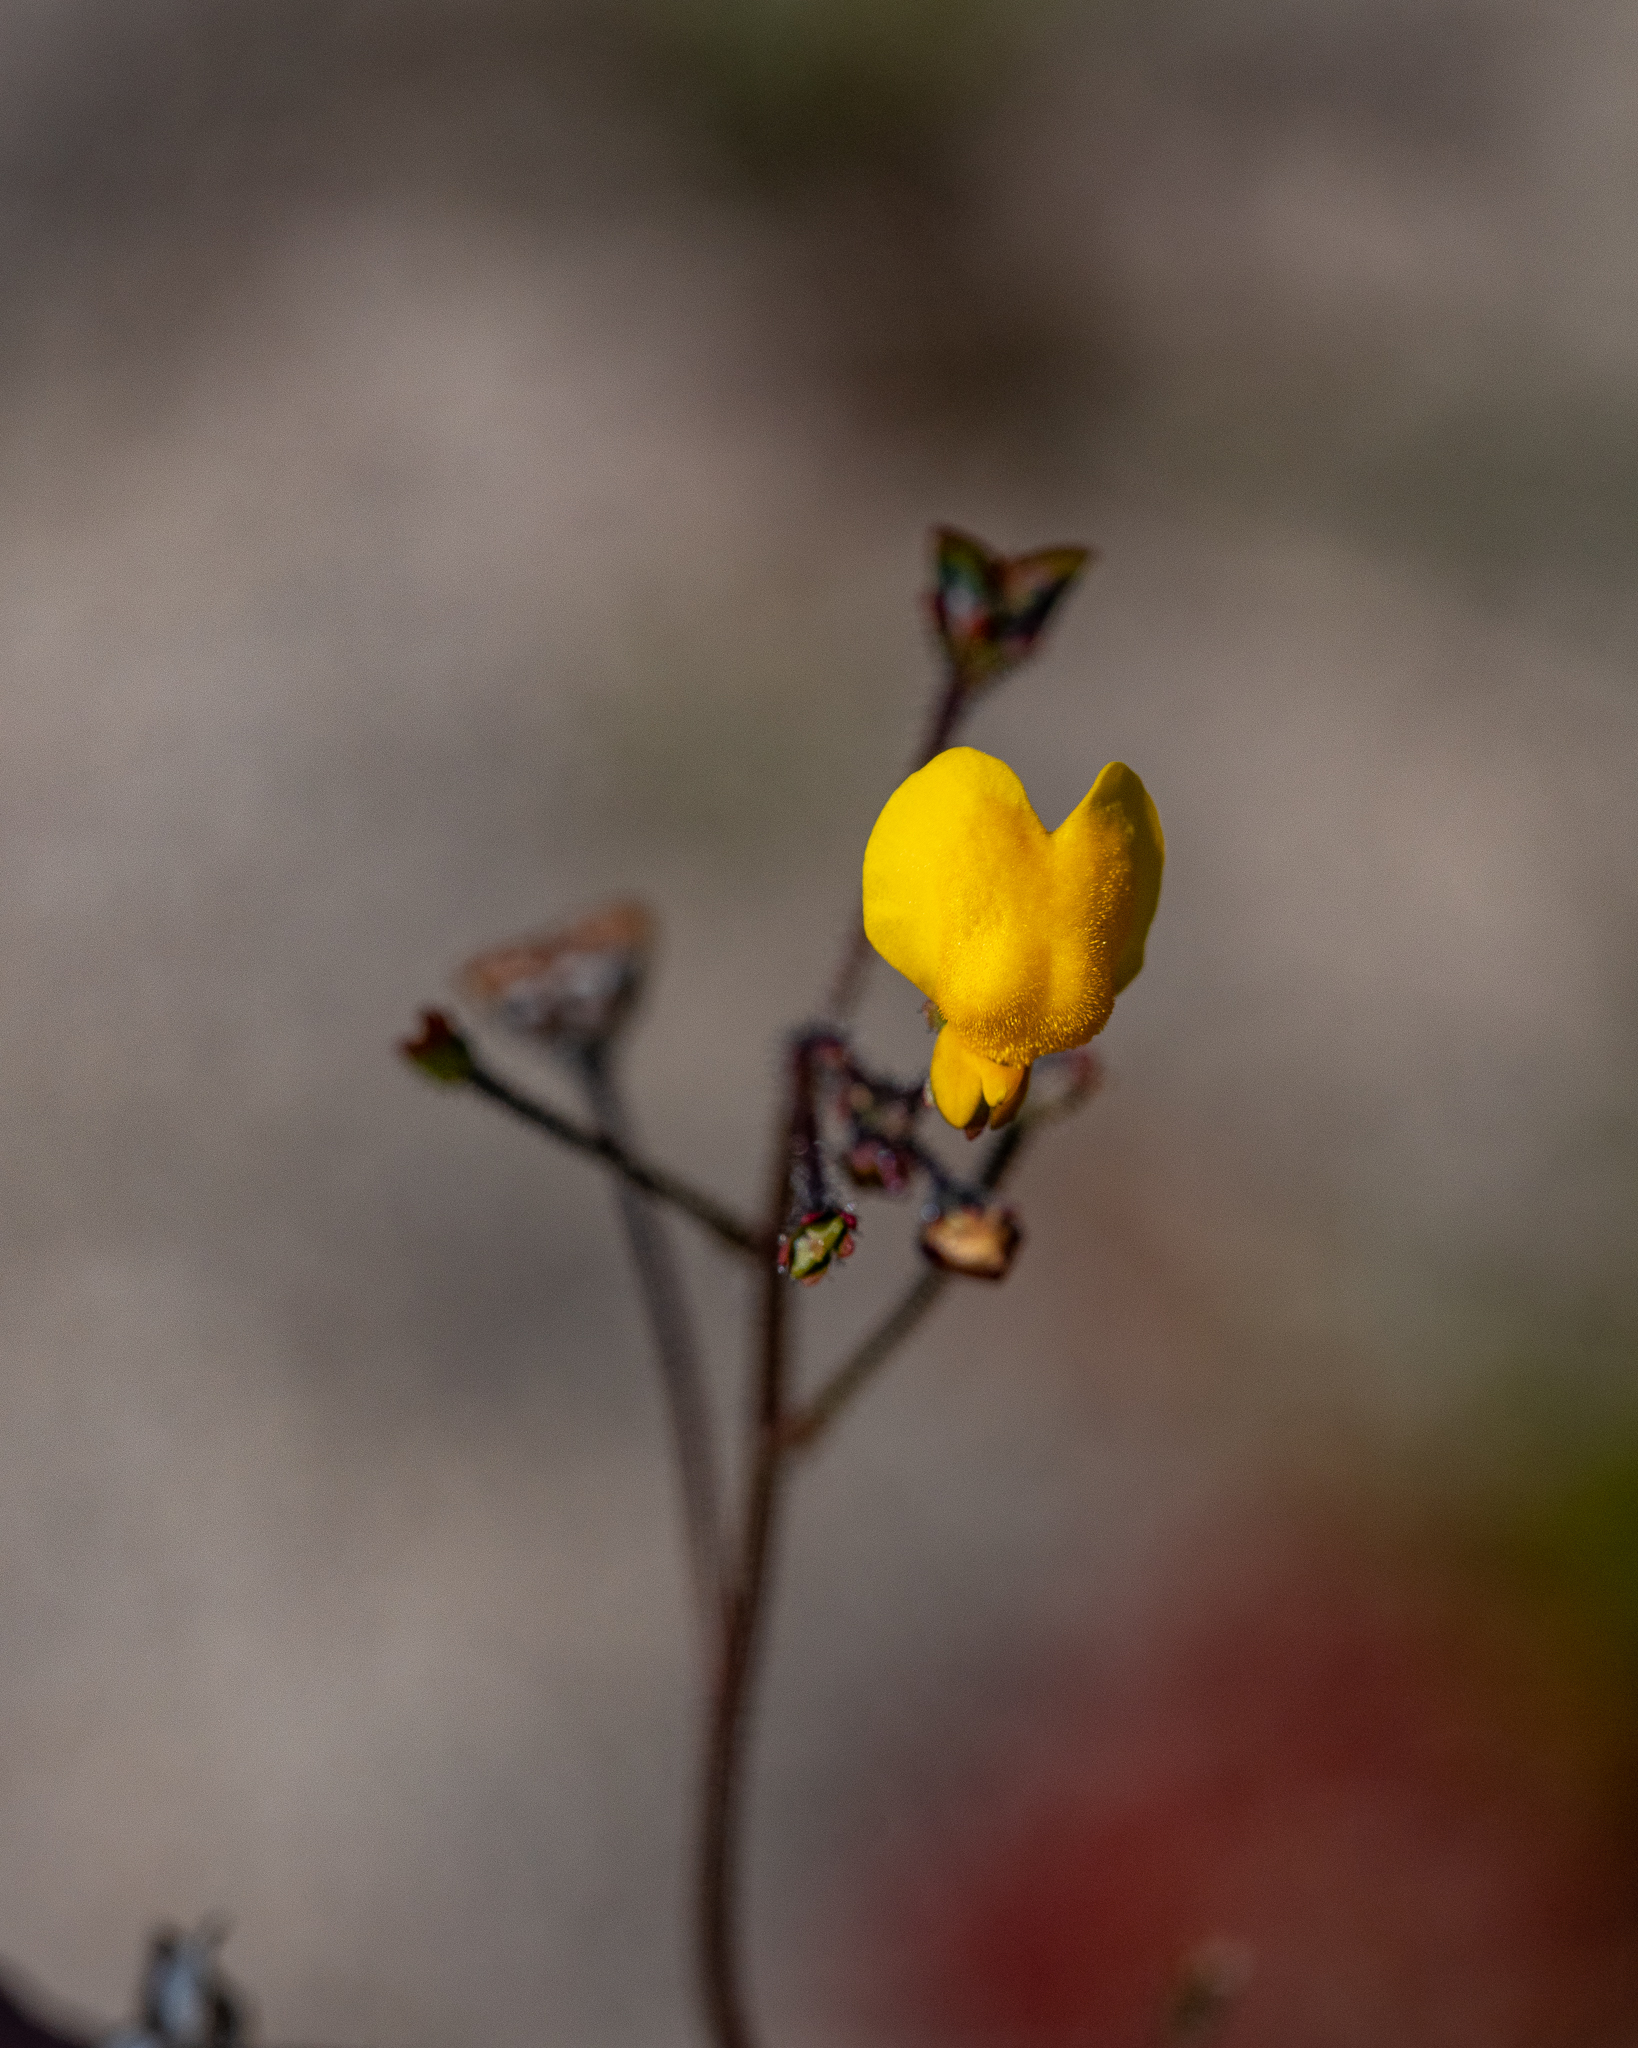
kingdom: Plantae
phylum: Tracheophyta
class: Magnoliopsida
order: Lamiales
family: Scrophulariaceae
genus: Nemesia
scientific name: Nemesia pinnata
